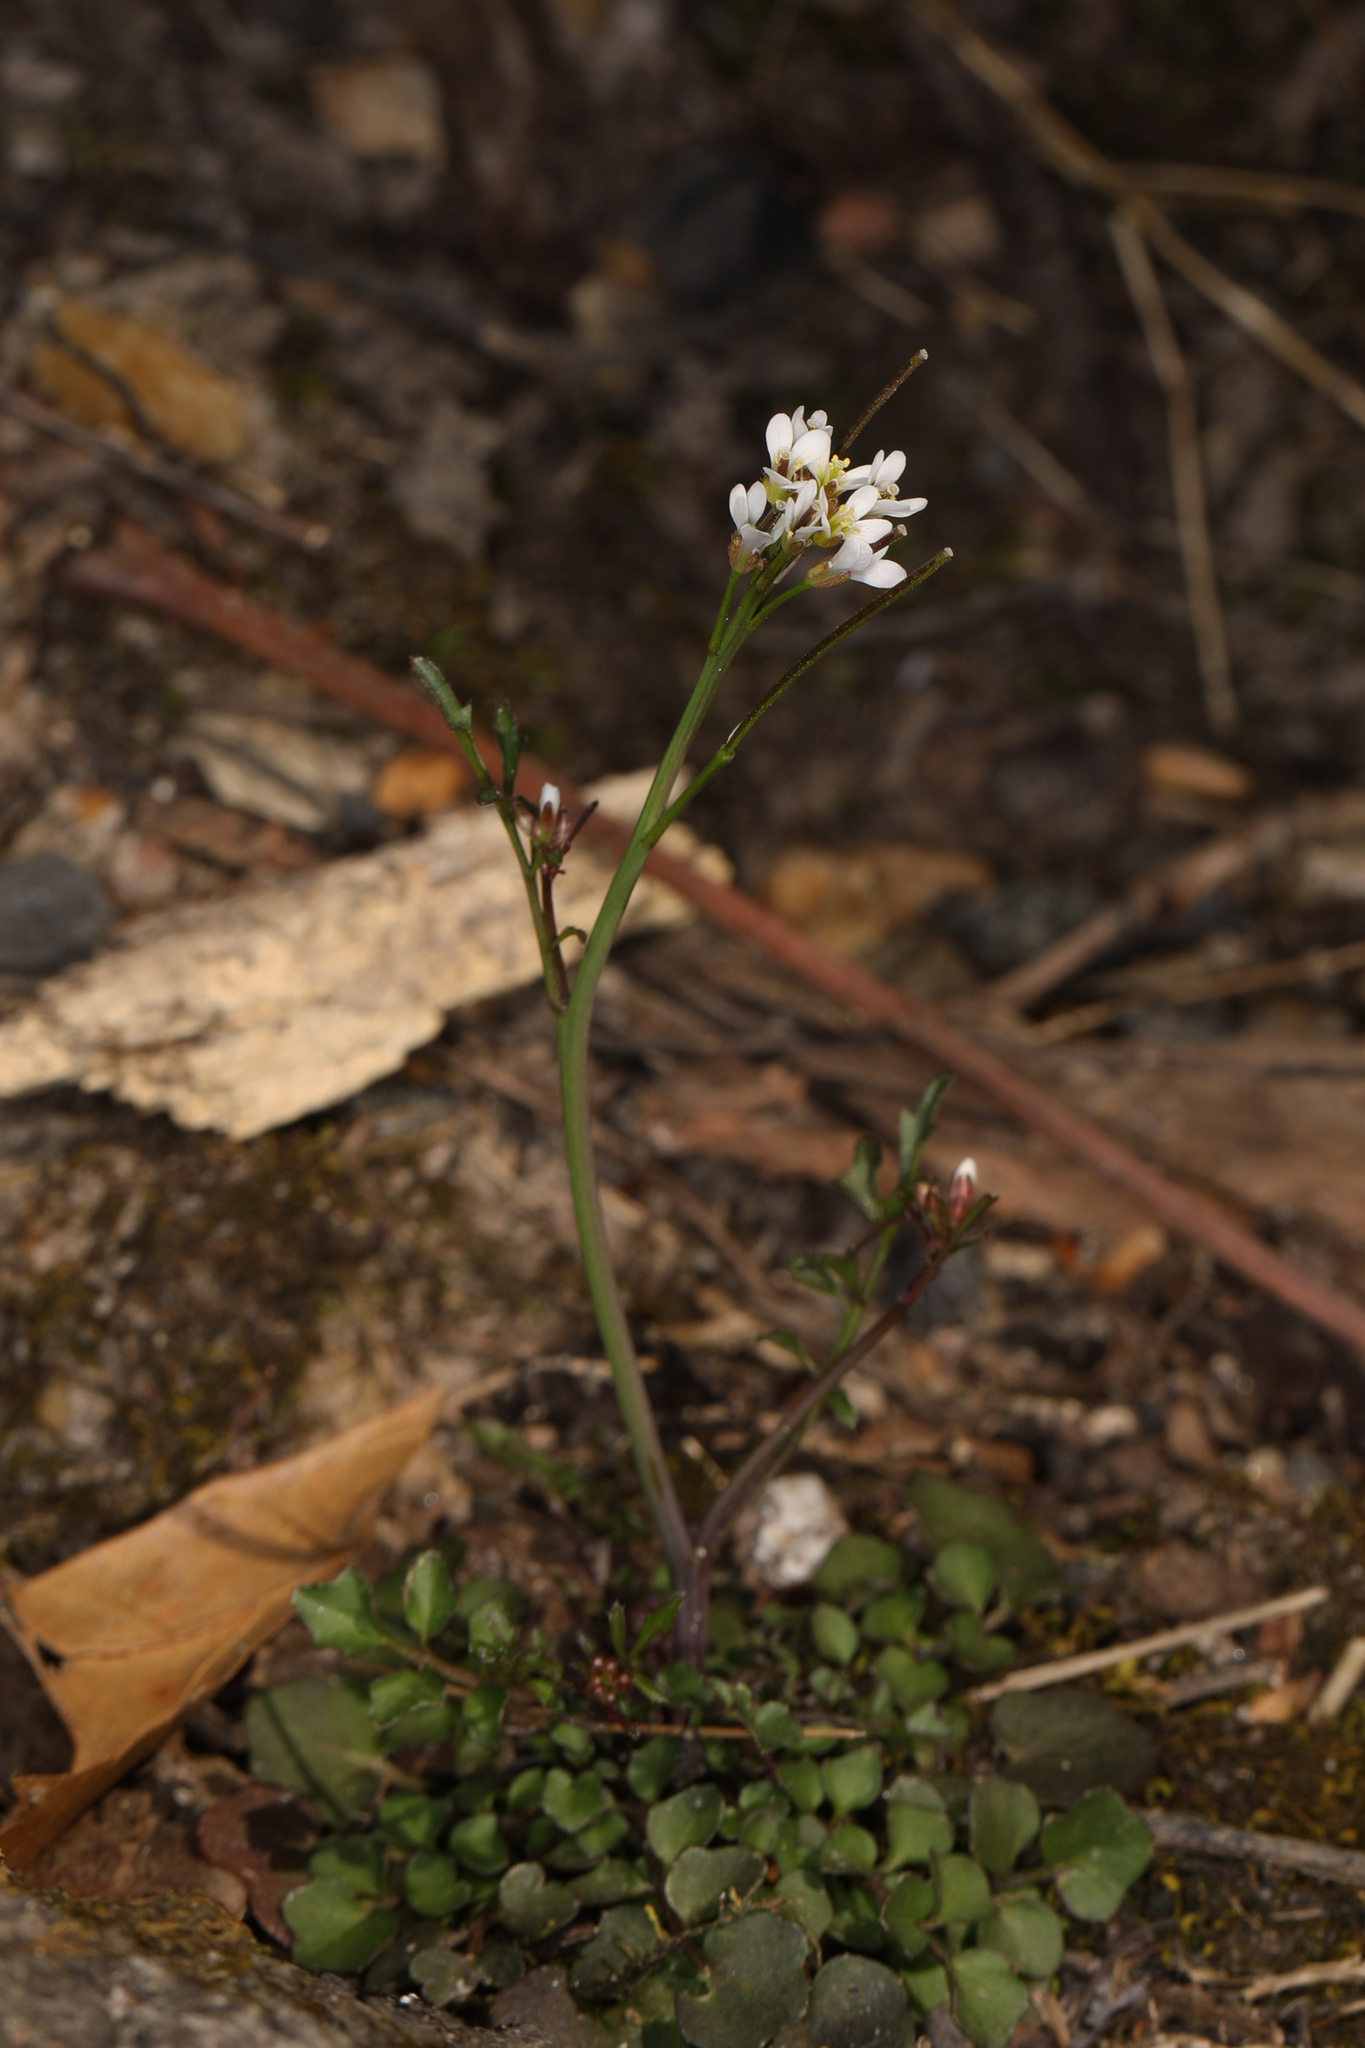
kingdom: Plantae
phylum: Tracheophyta
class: Magnoliopsida
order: Brassicales
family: Brassicaceae
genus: Cardamine
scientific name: Cardamine hirsuta
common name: Hairy bittercress
